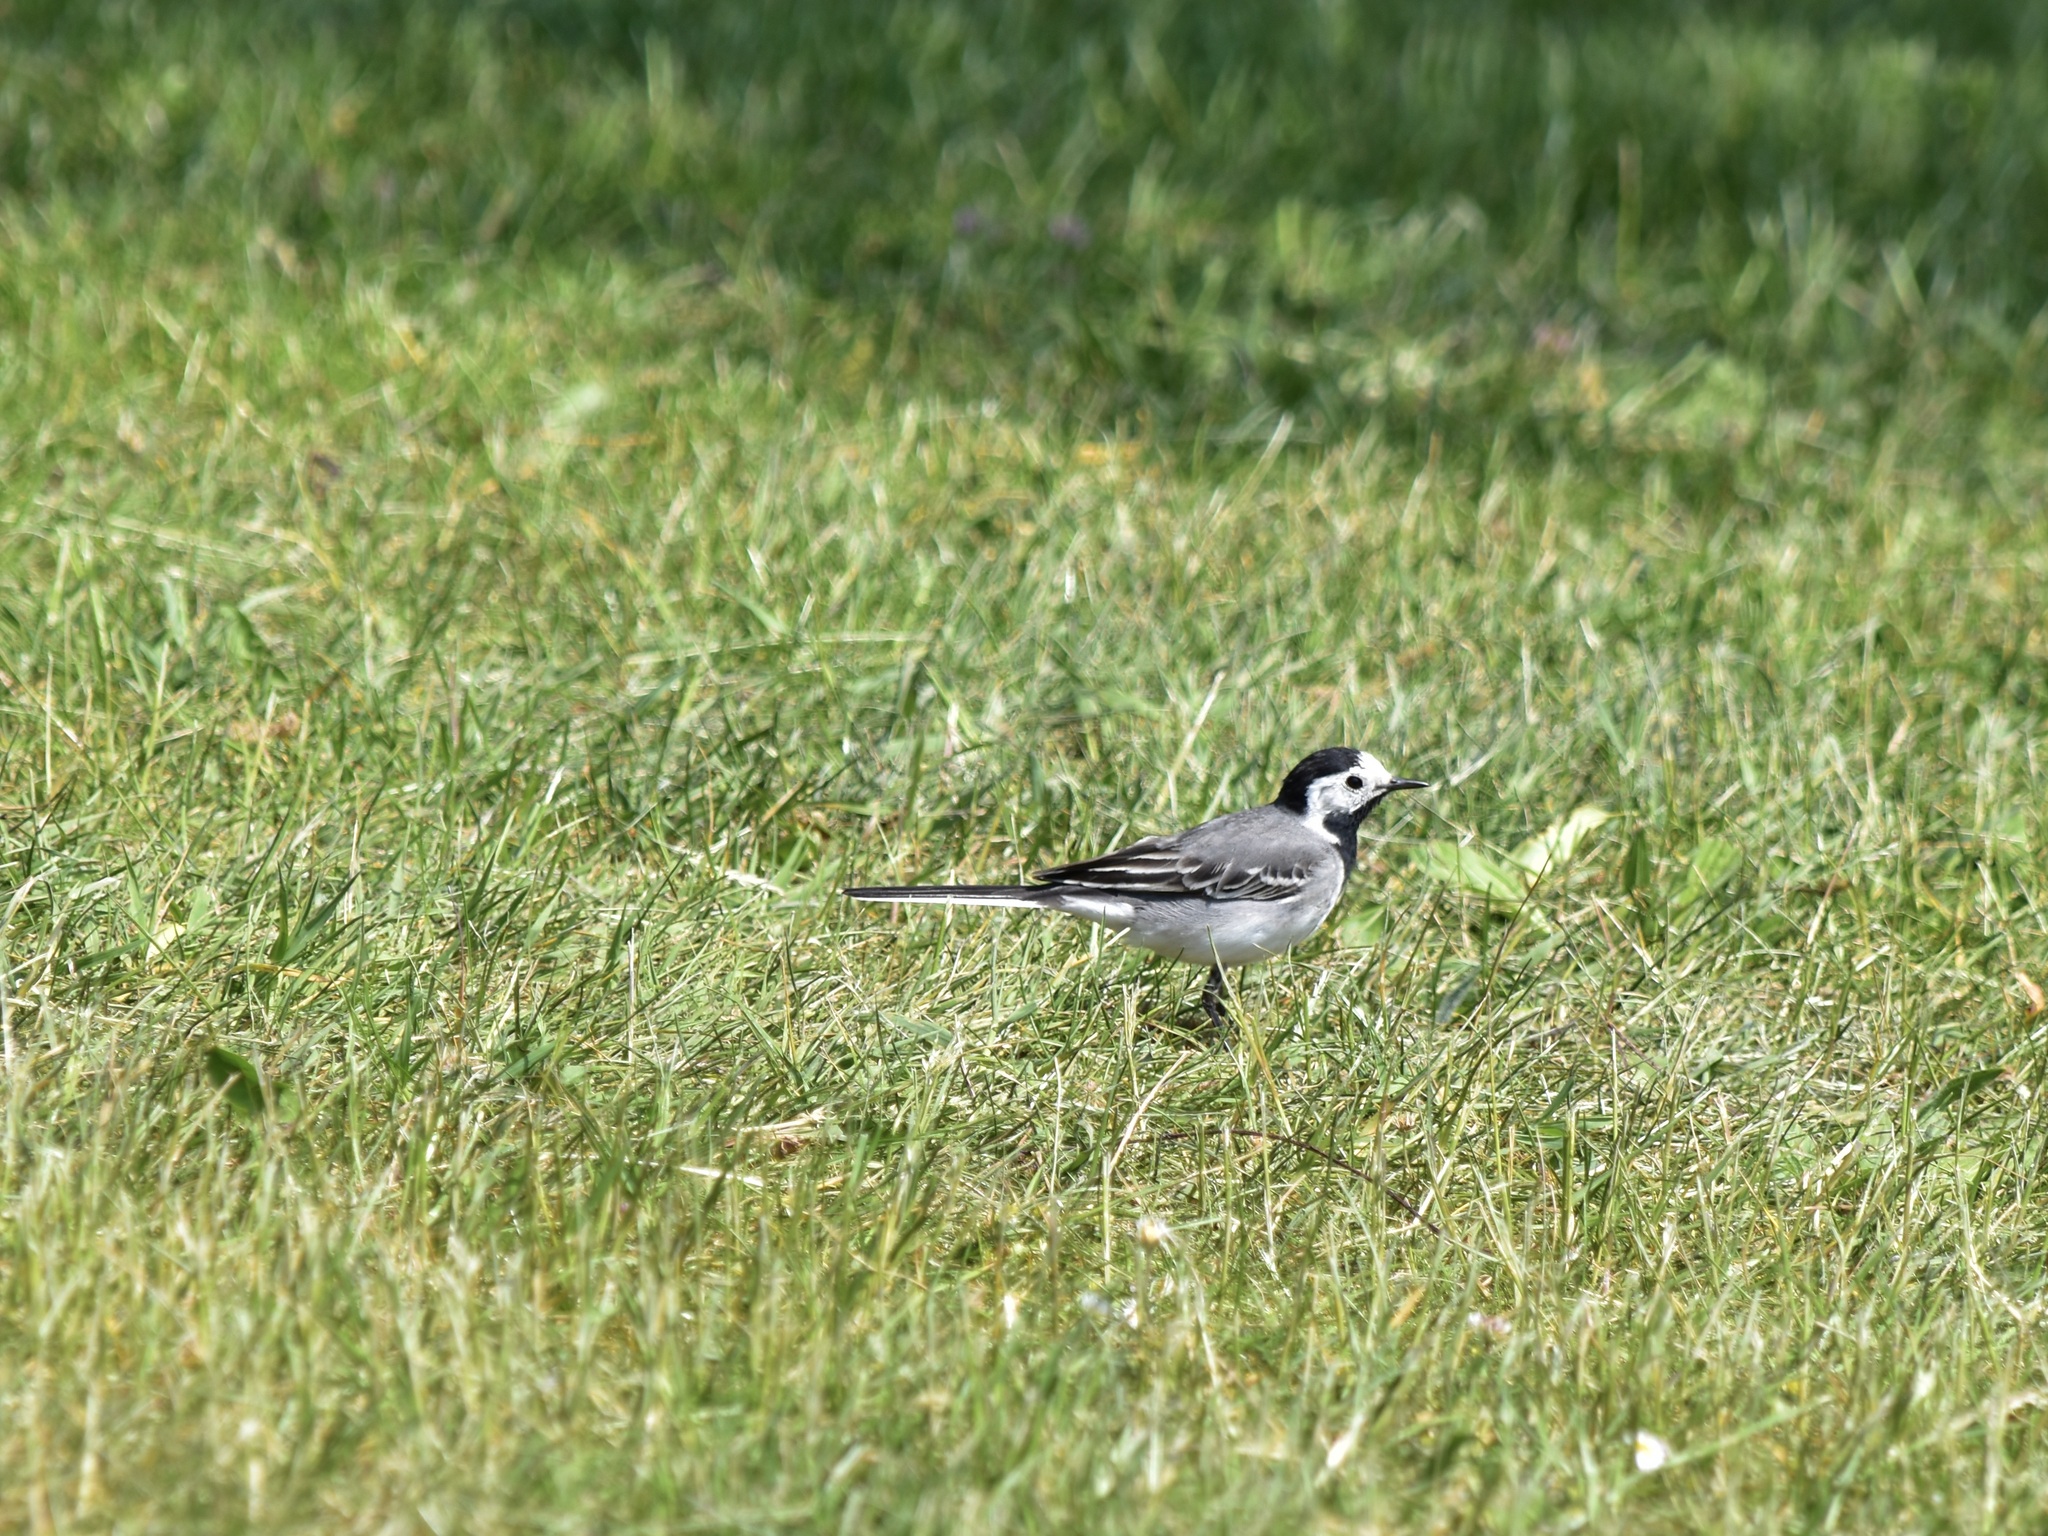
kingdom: Animalia
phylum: Chordata
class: Aves
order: Passeriformes
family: Motacillidae
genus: Motacilla
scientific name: Motacilla alba
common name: White wagtail
